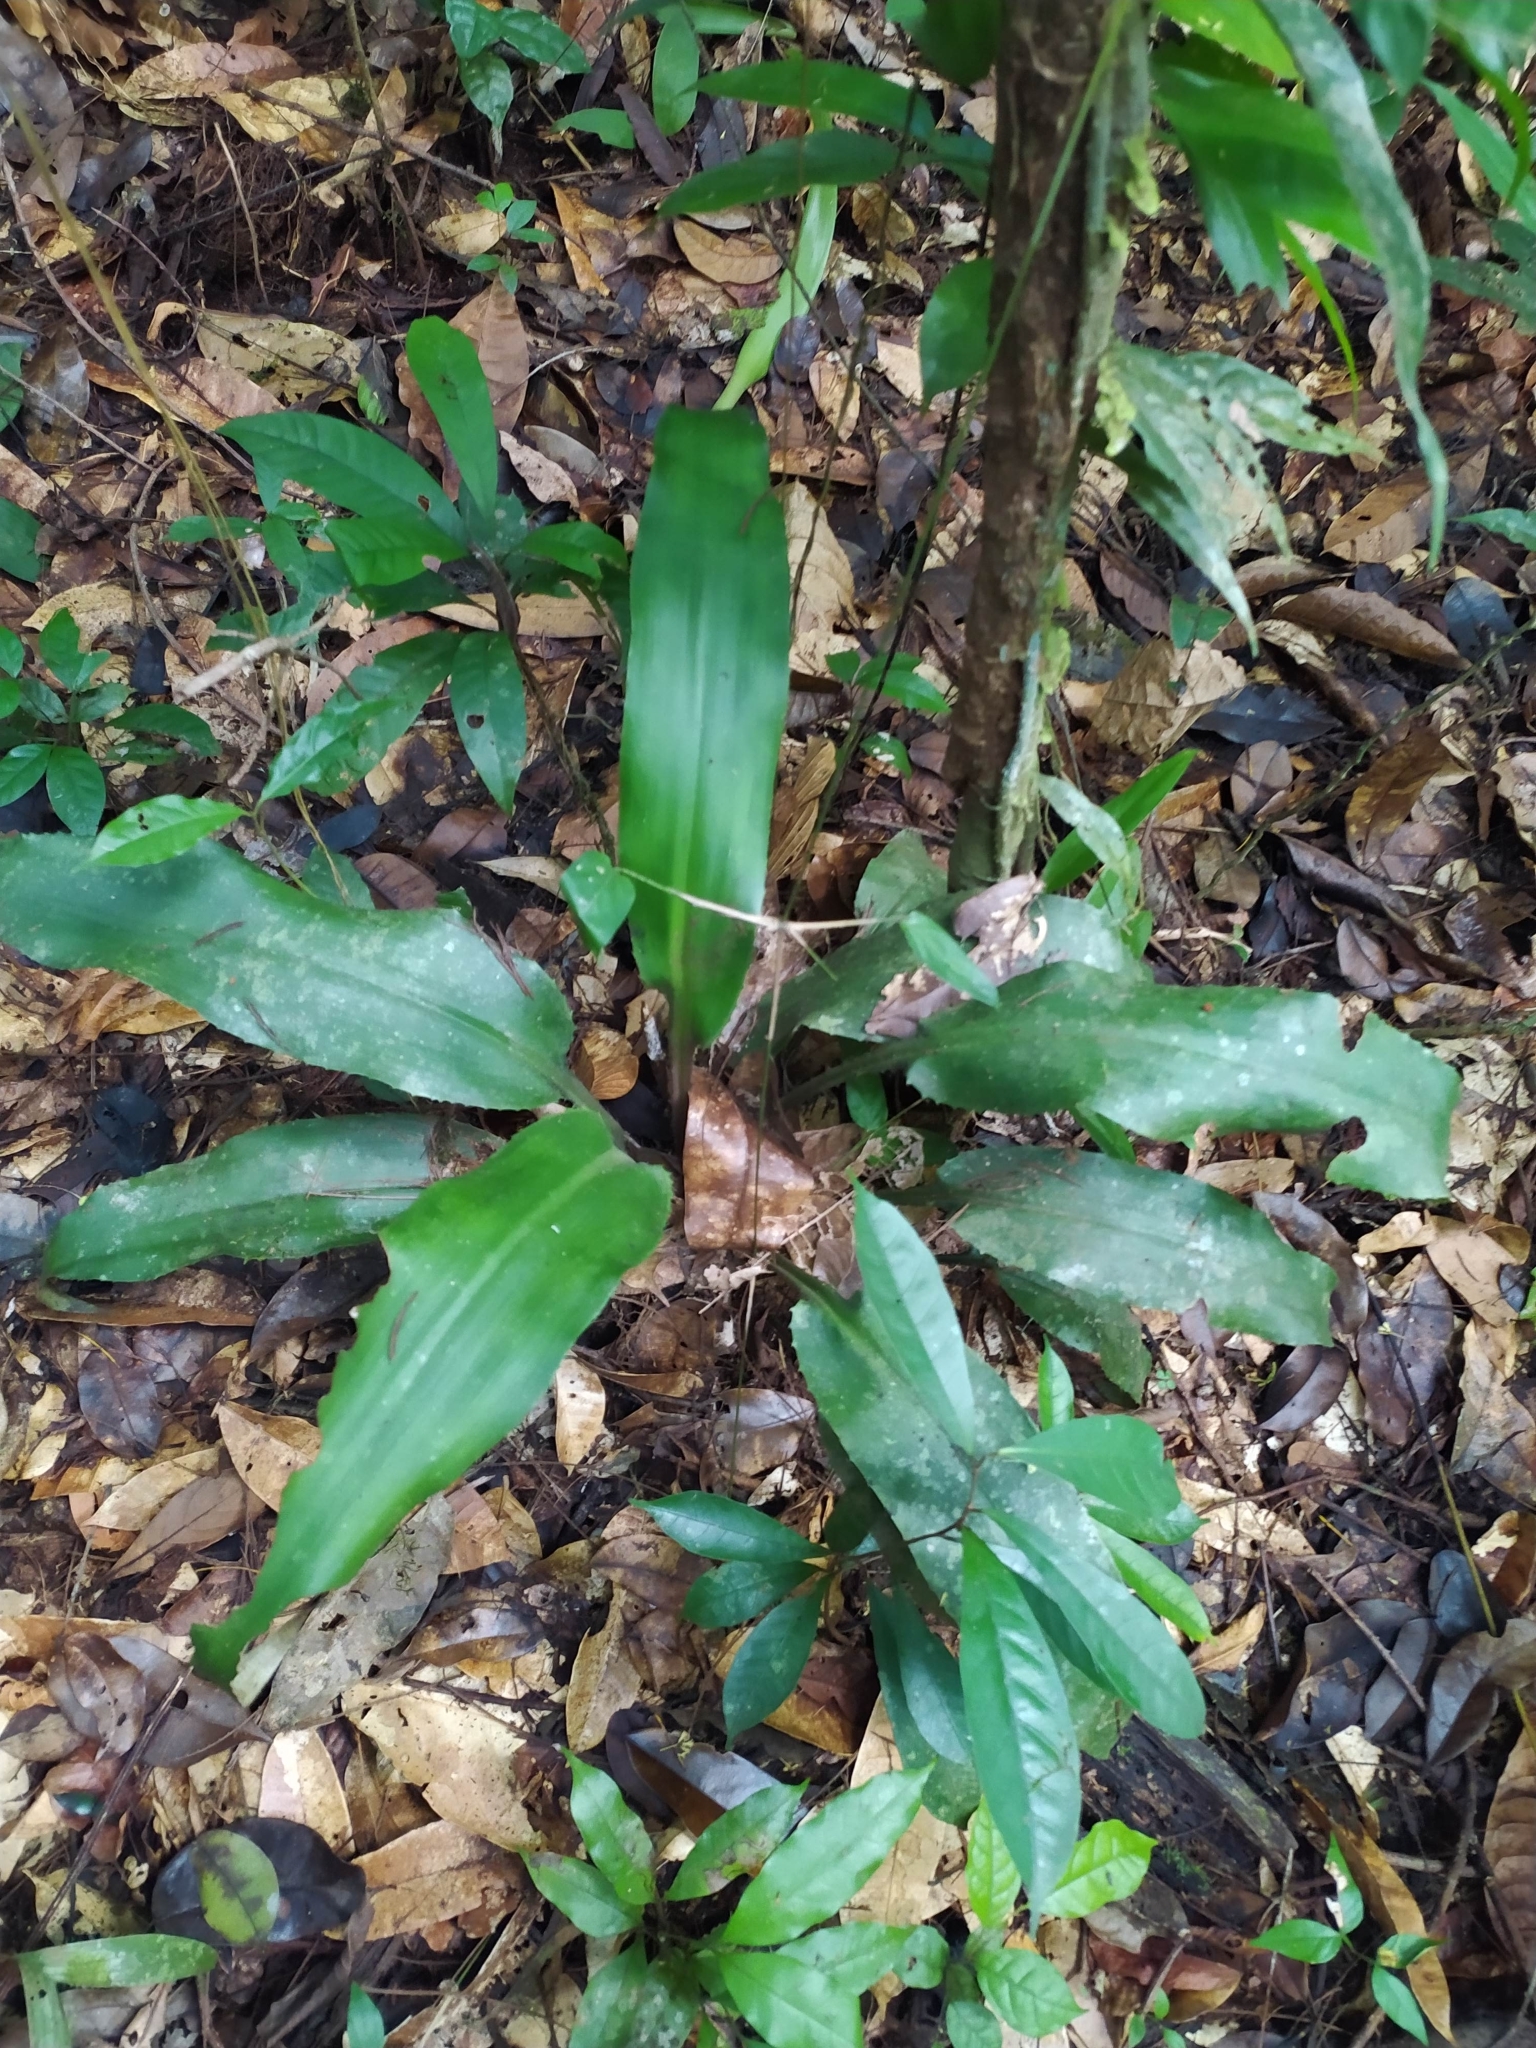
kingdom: Plantae
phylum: Tracheophyta
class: Liliopsida
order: Poales
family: Bromeliaceae
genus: Disteganthus
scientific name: Disteganthus basilateralis
